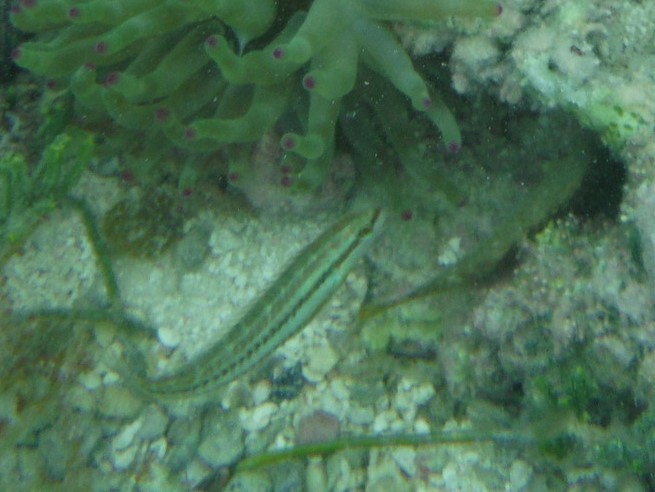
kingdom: Animalia
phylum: Chordata
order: Perciformes
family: Labridae
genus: Halichoeres
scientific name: Halichoeres bivittatus
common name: Slippery dick
